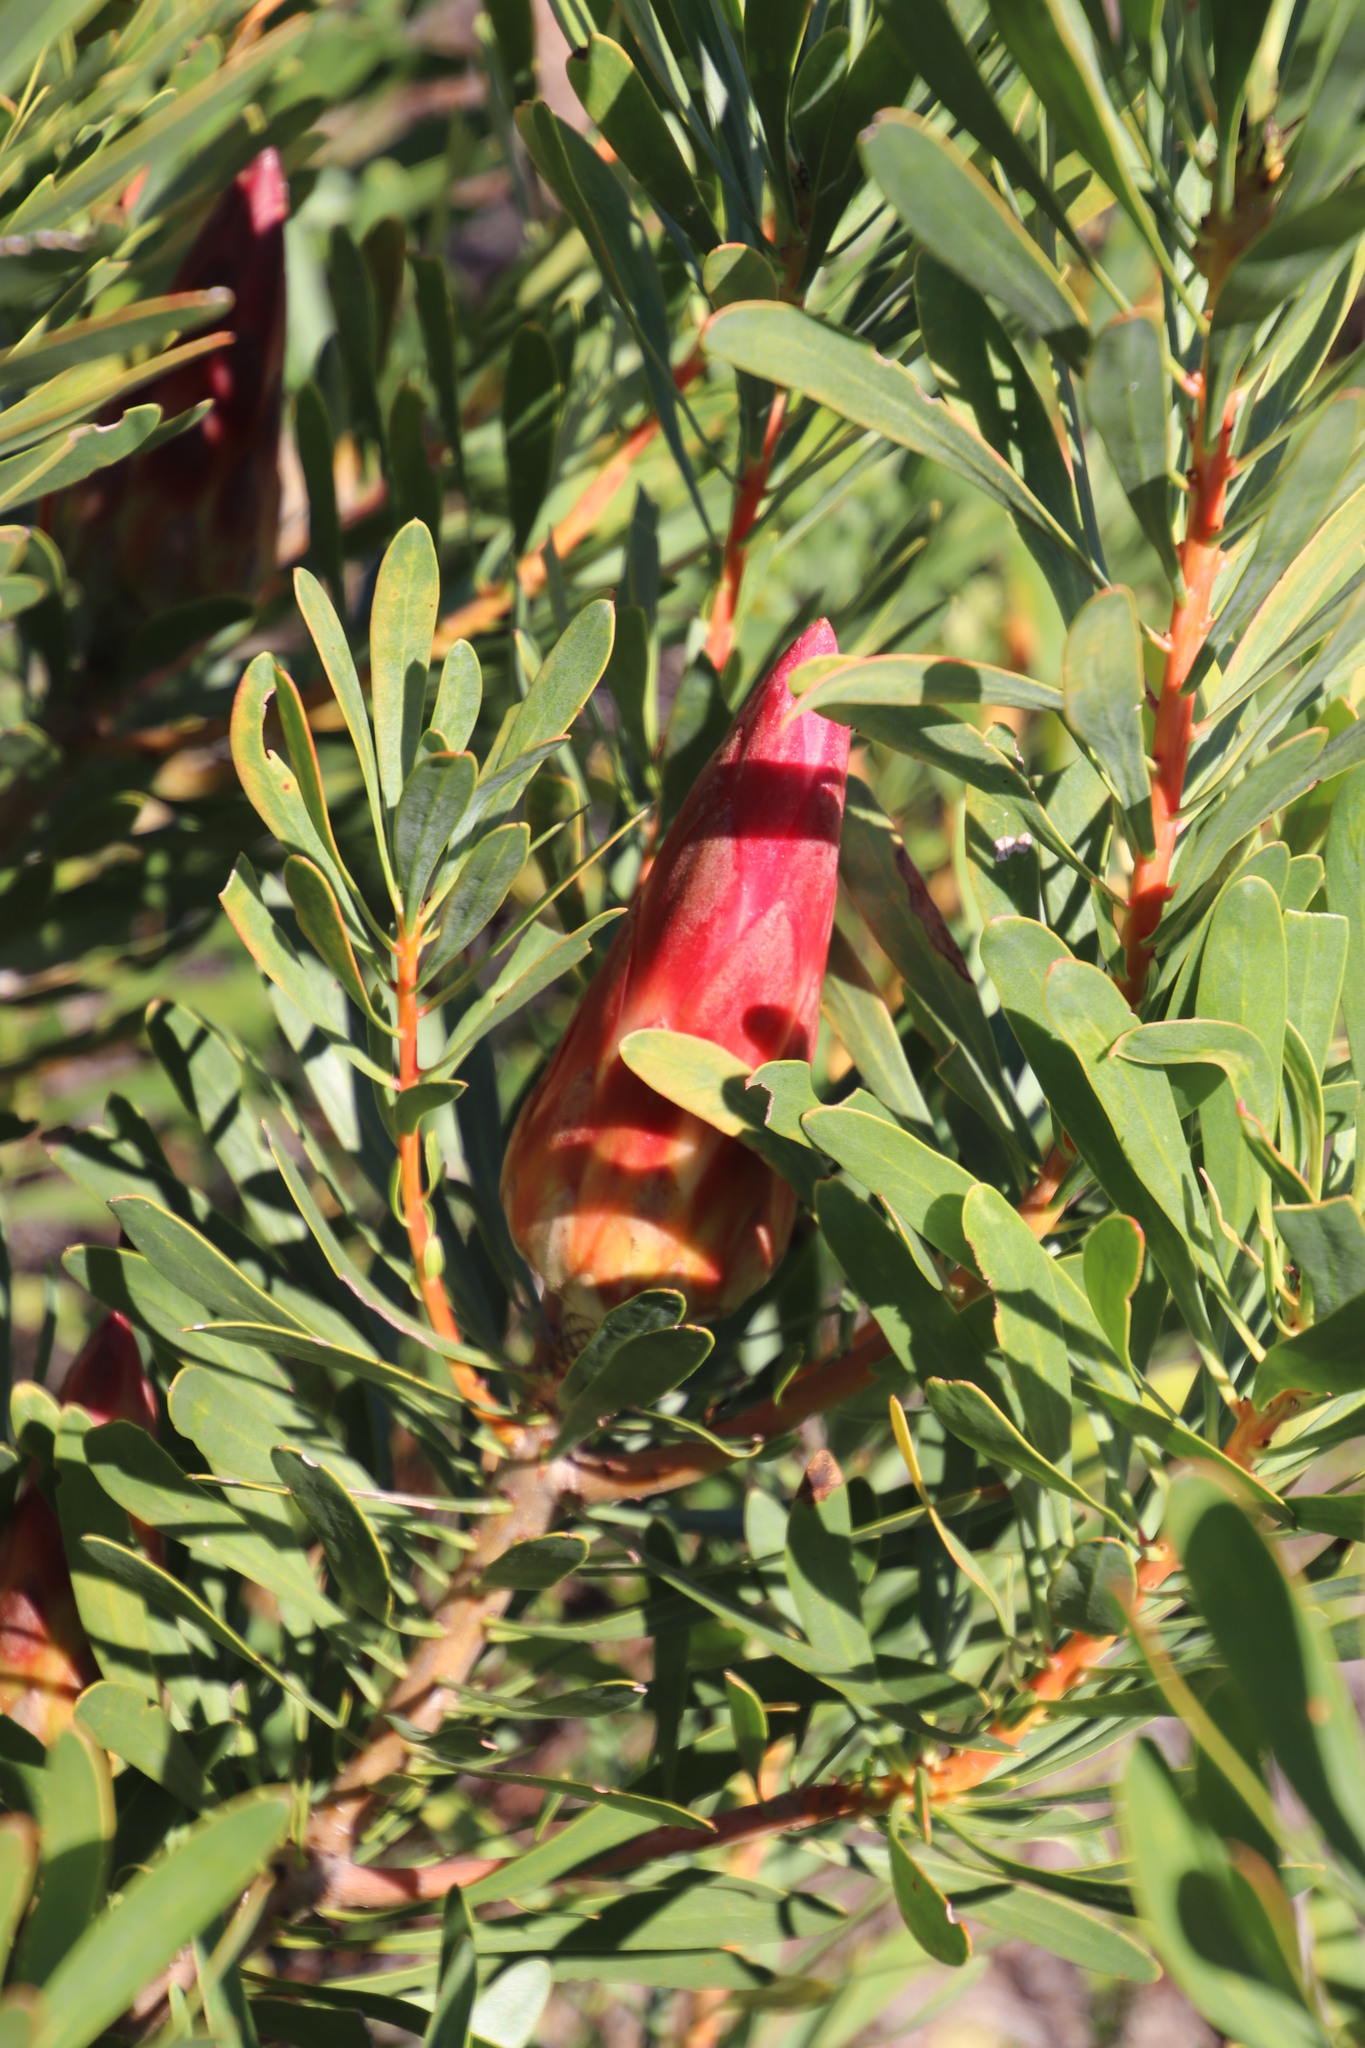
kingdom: Plantae
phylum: Tracheophyta
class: Magnoliopsida
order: Proteales
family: Proteaceae
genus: Protea
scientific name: Protea repens
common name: Sugarbush
